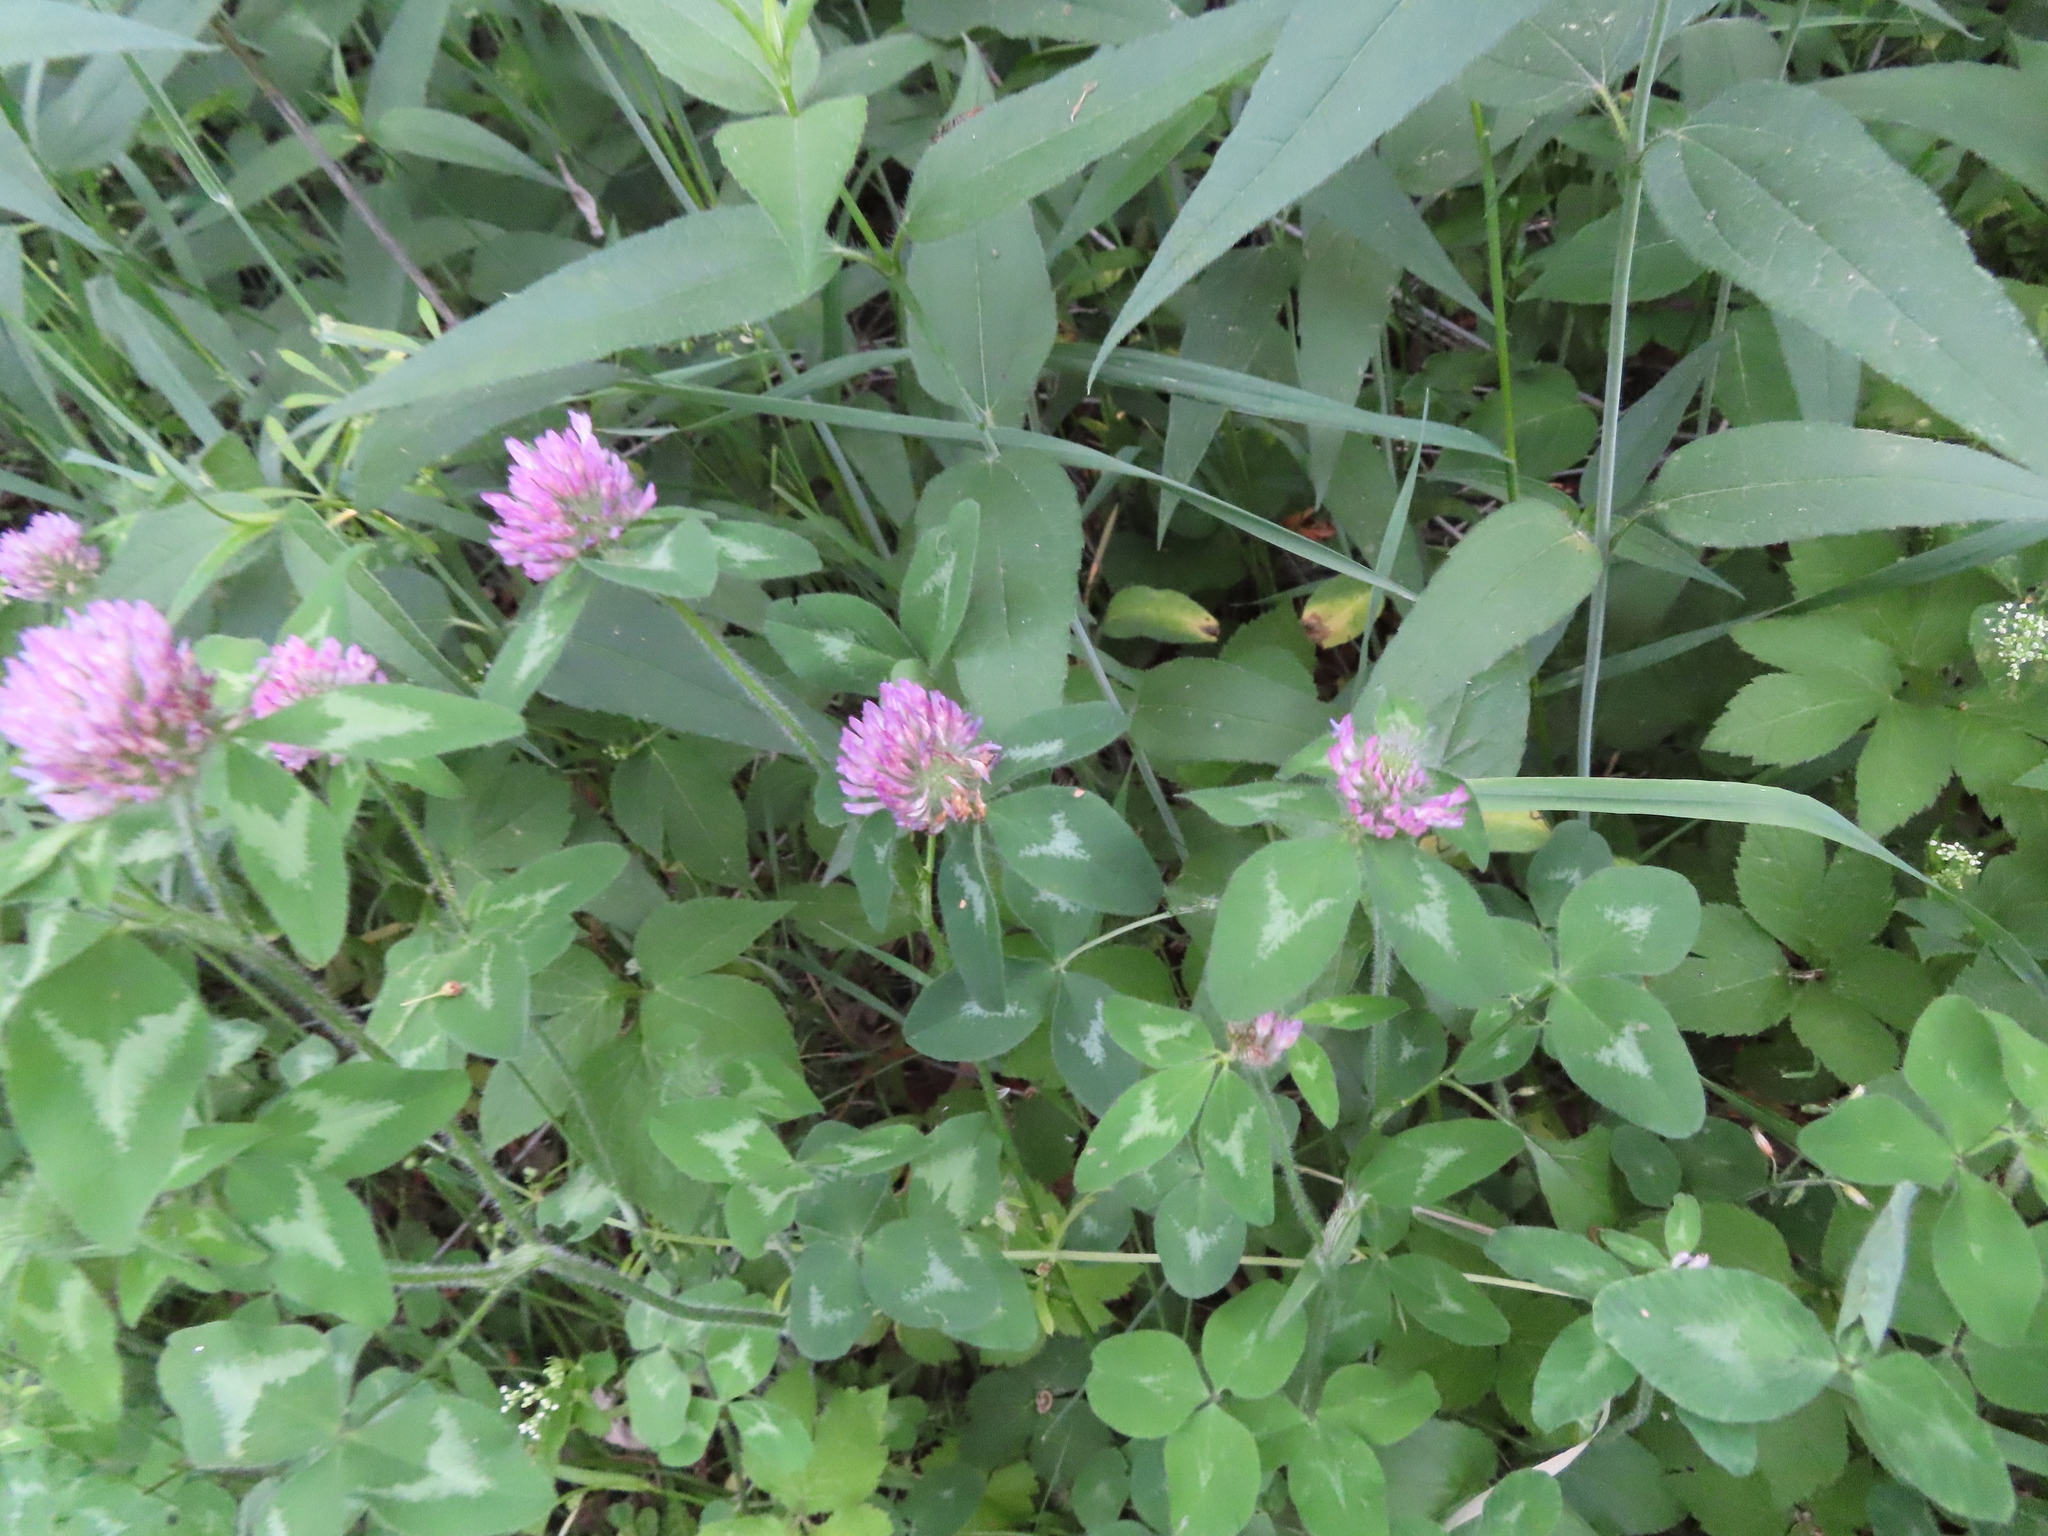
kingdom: Plantae
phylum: Tracheophyta
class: Magnoliopsida
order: Fabales
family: Fabaceae
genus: Trifolium
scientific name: Trifolium pratense
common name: Red clover
